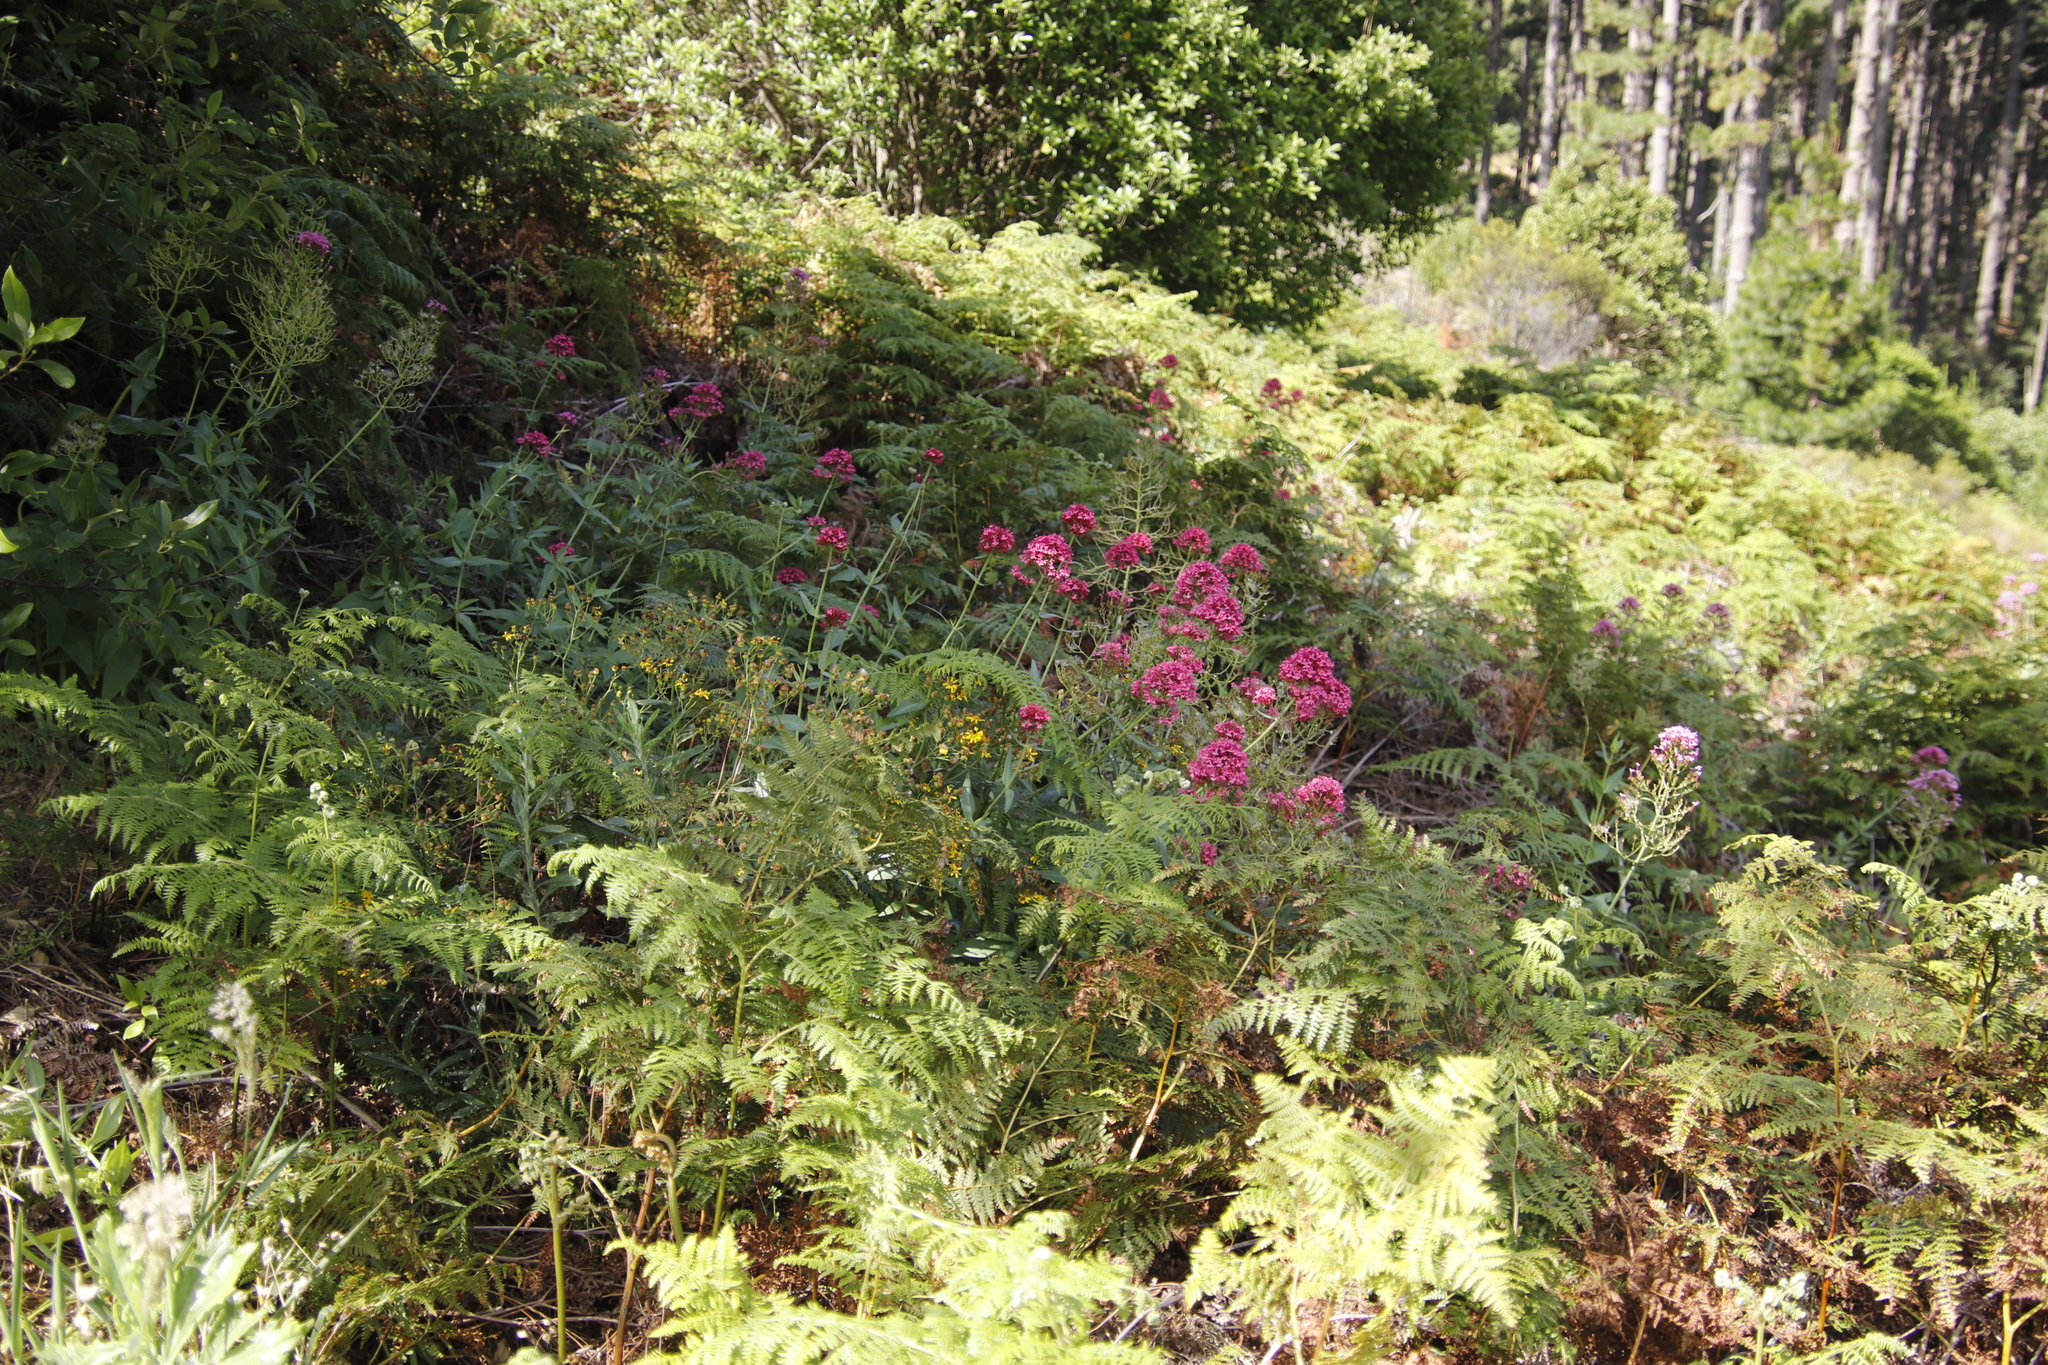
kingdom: Plantae
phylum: Tracheophyta
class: Magnoliopsida
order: Dipsacales
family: Caprifoliaceae
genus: Centranthus
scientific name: Centranthus ruber
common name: Red valerian
